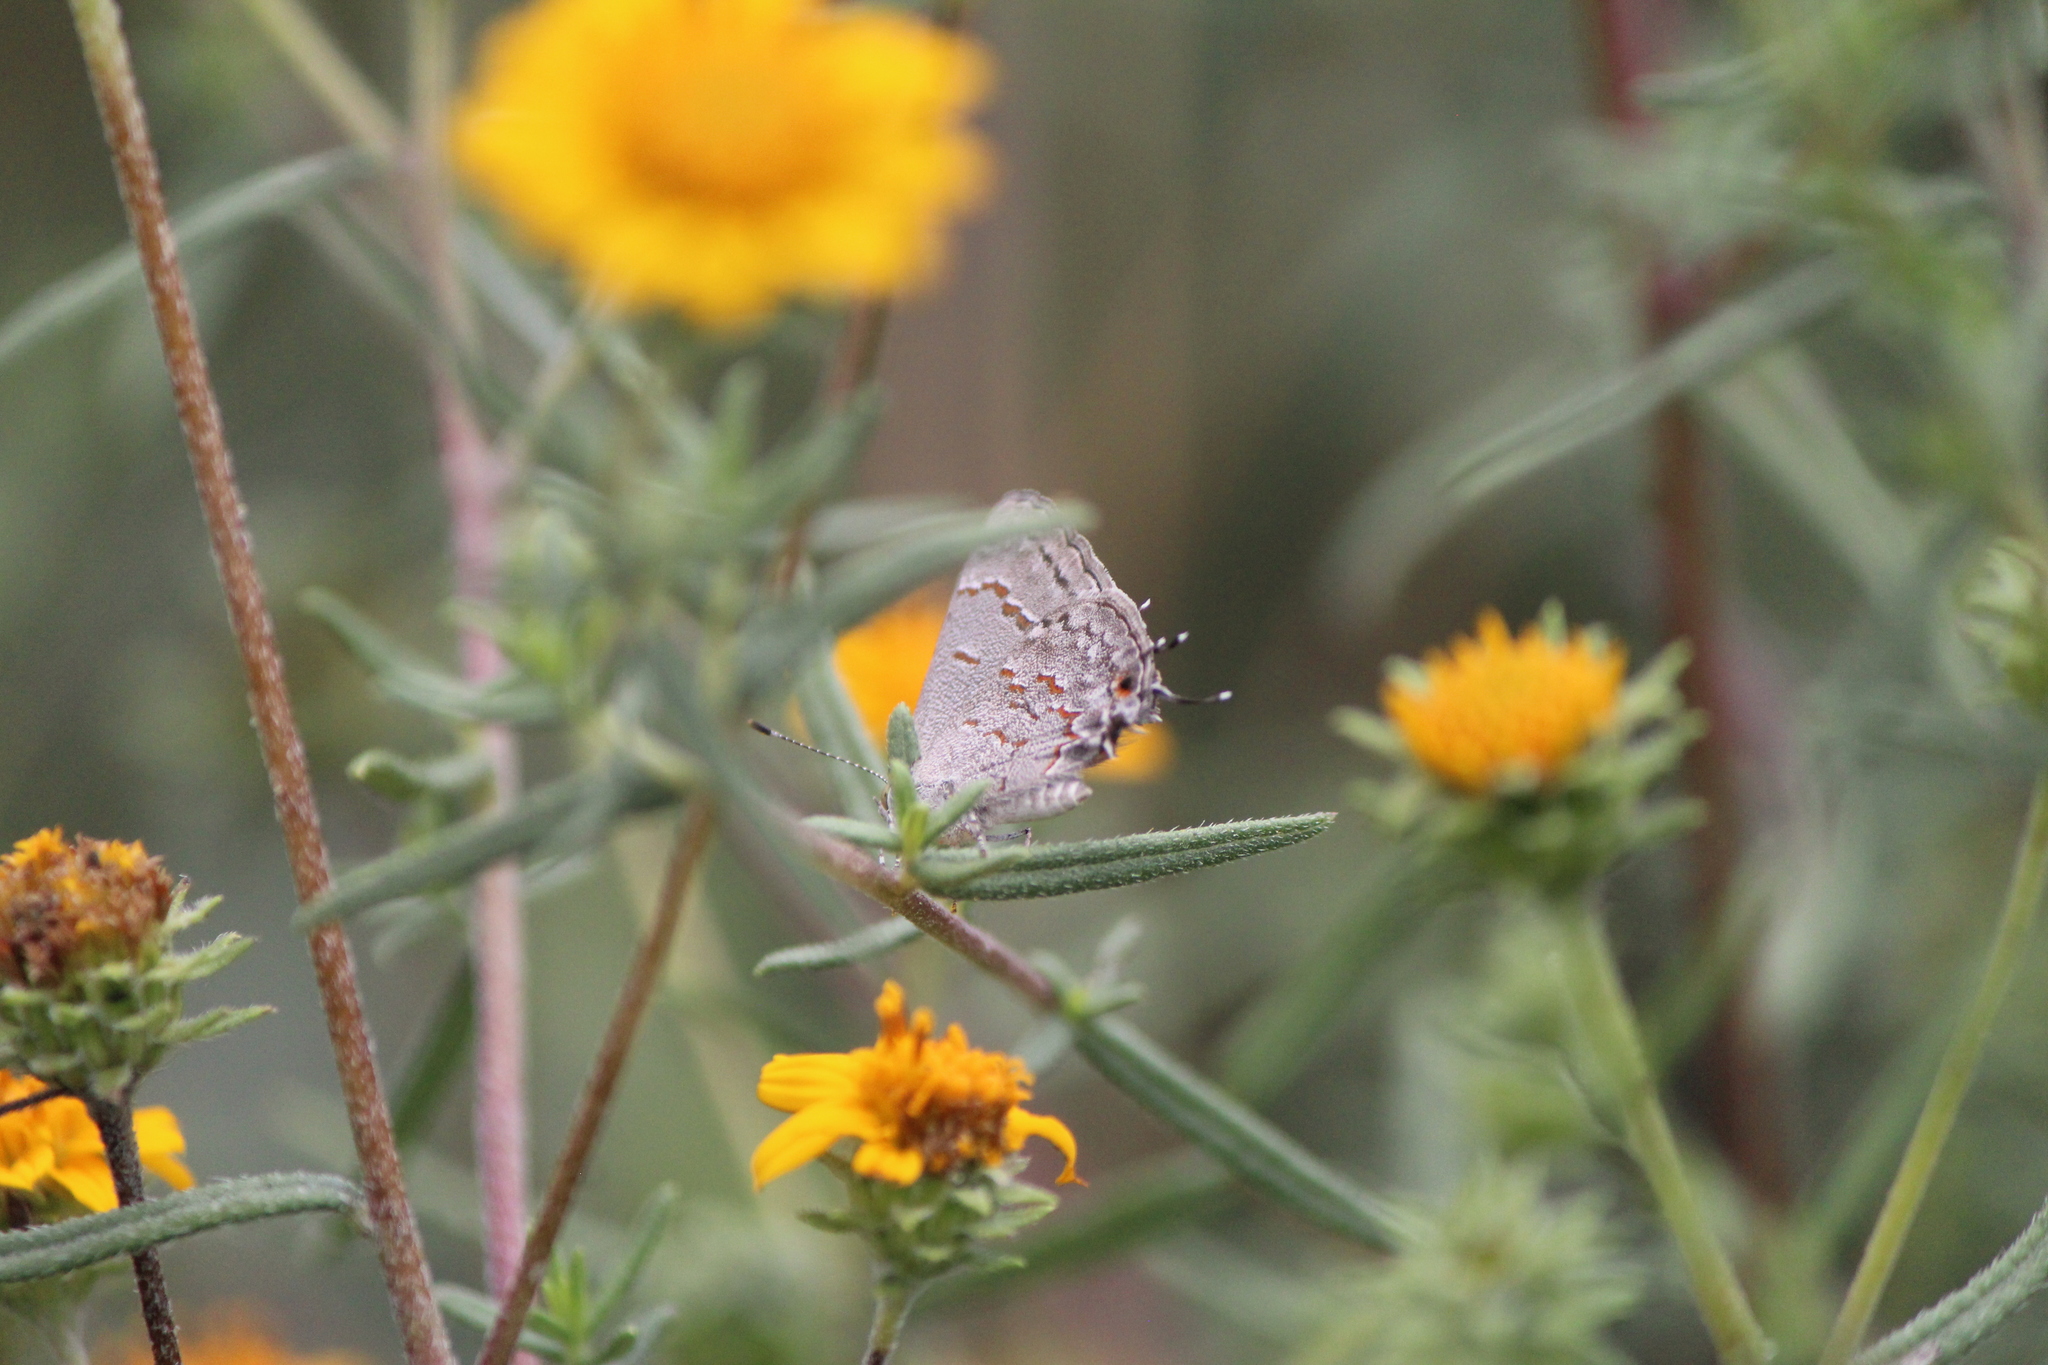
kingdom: Animalia
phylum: Arthropoda
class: Insecta
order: Lepidoptera
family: Lycaenidae
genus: Ministrymon
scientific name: Ministrymon leda
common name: Leda ministreak
